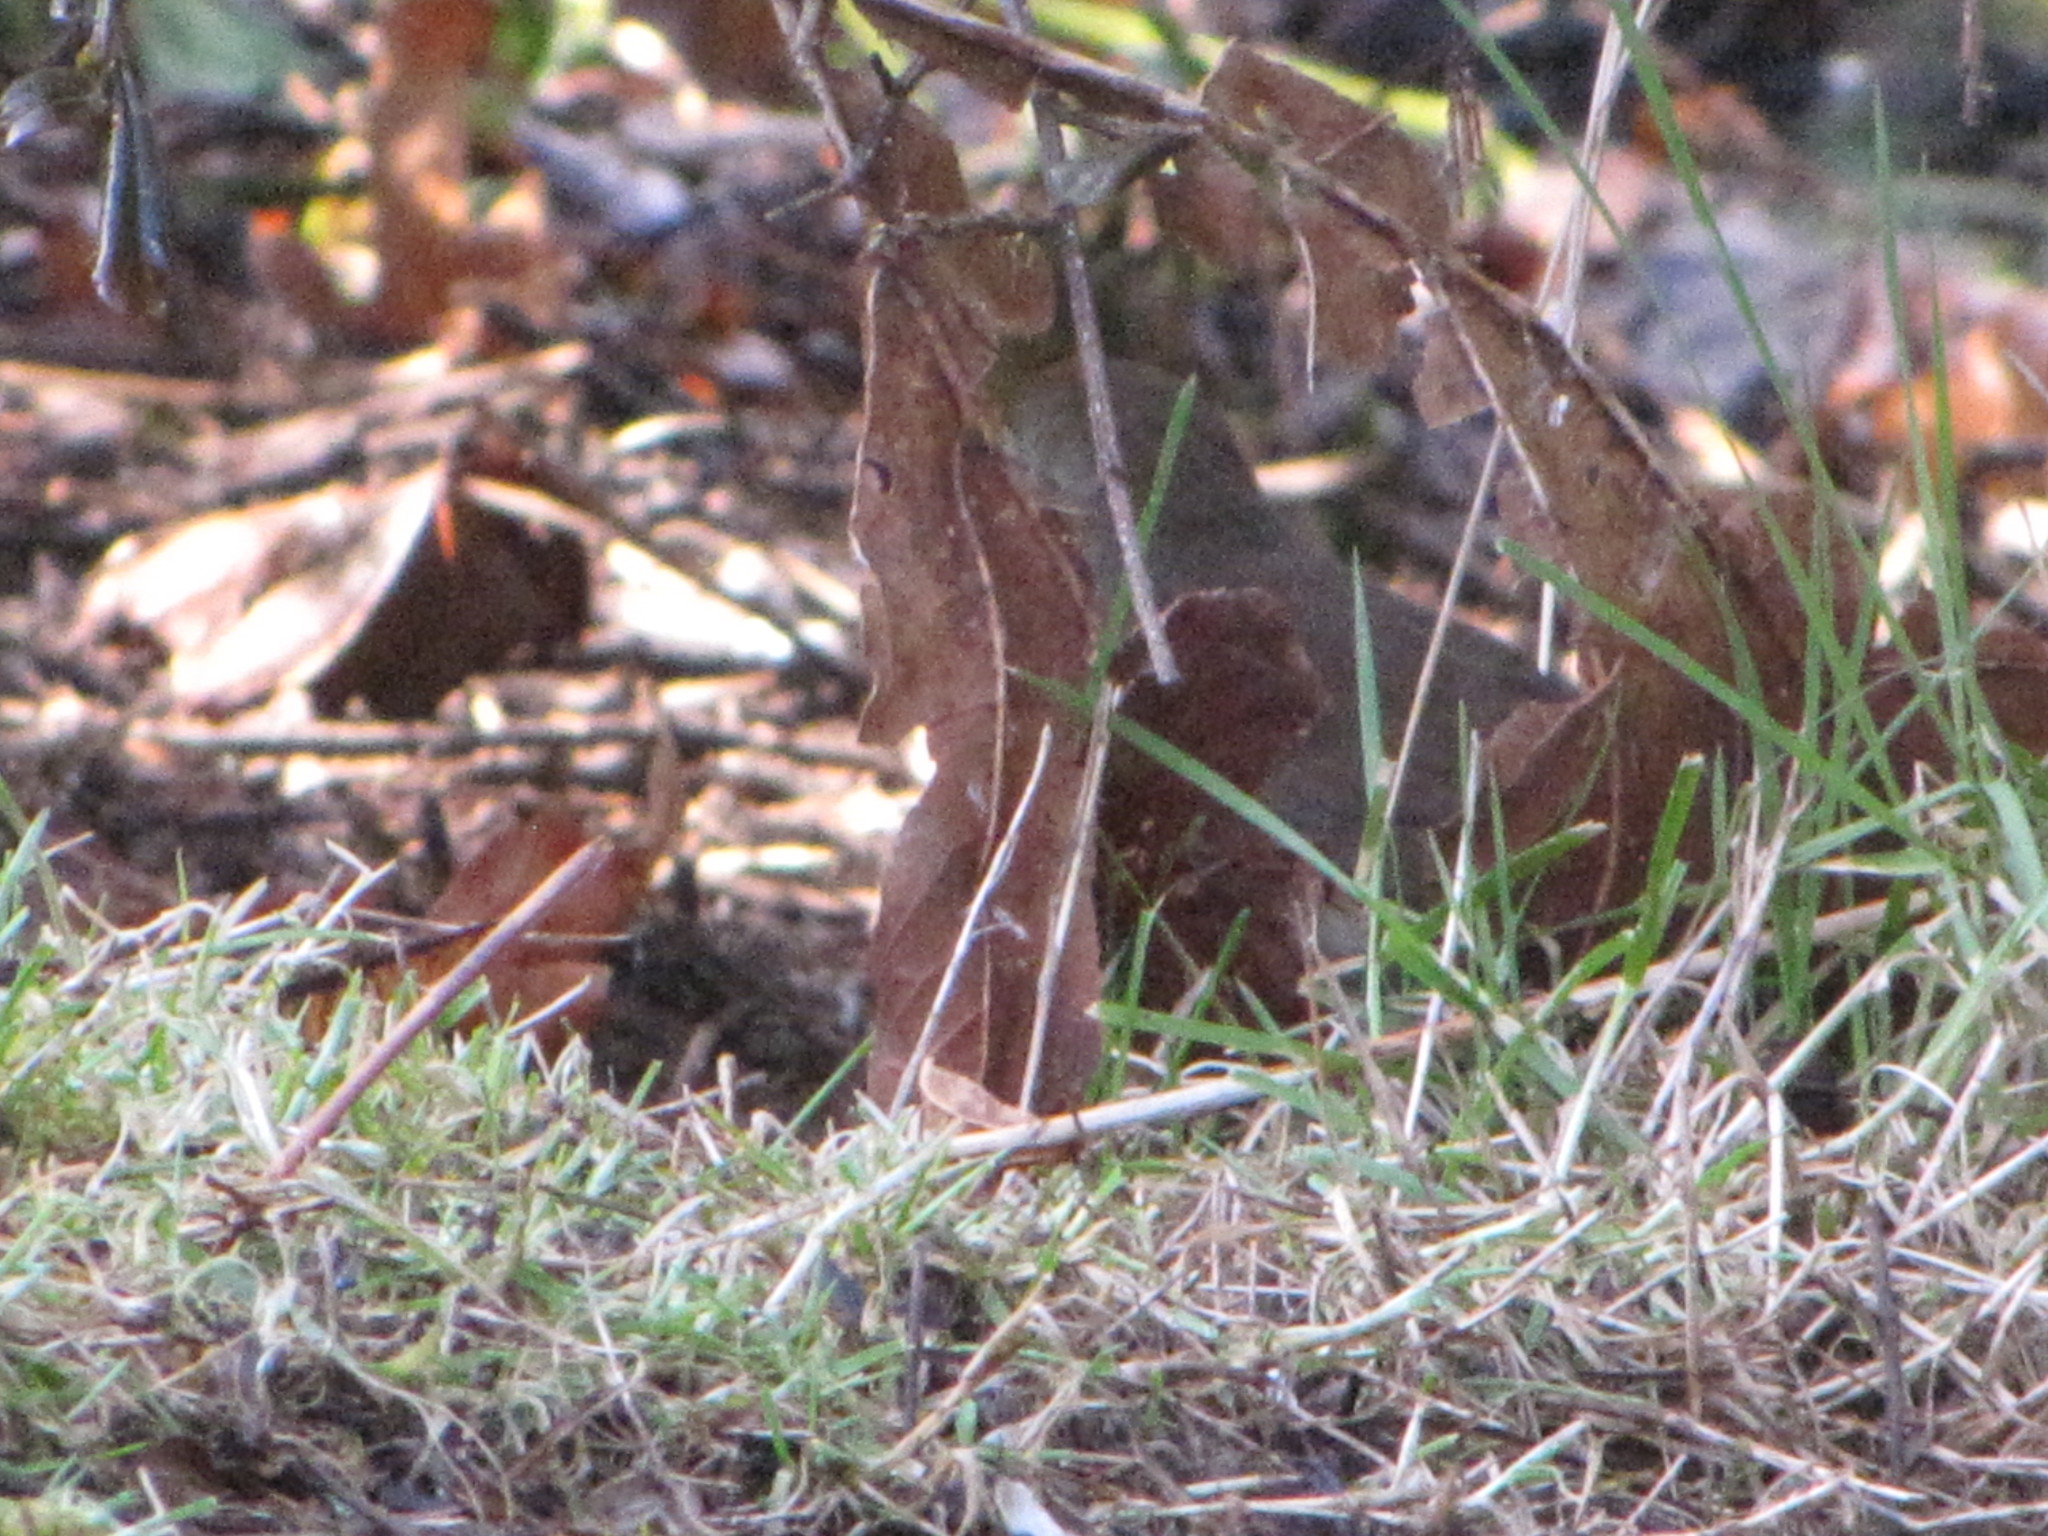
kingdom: Animalia
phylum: Chordata
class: Aves
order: Passeriformes
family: Passerellidae
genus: Passerella
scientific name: Passerella iliaca
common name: Fox sparrow
